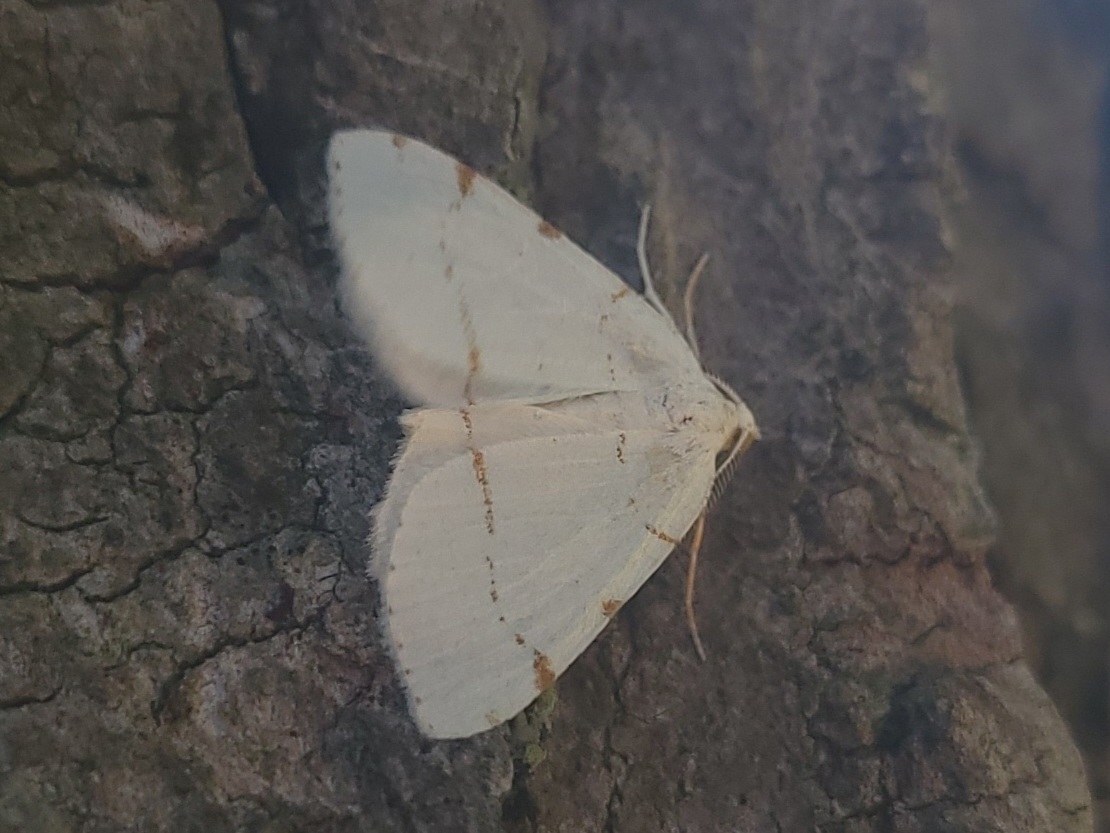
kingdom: Animalia
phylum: Arthropoda
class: Insecta
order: Lepidoptera
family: Geometridae
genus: Macaria
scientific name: Macaria pustularia
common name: Lesser maple spanworm moth
